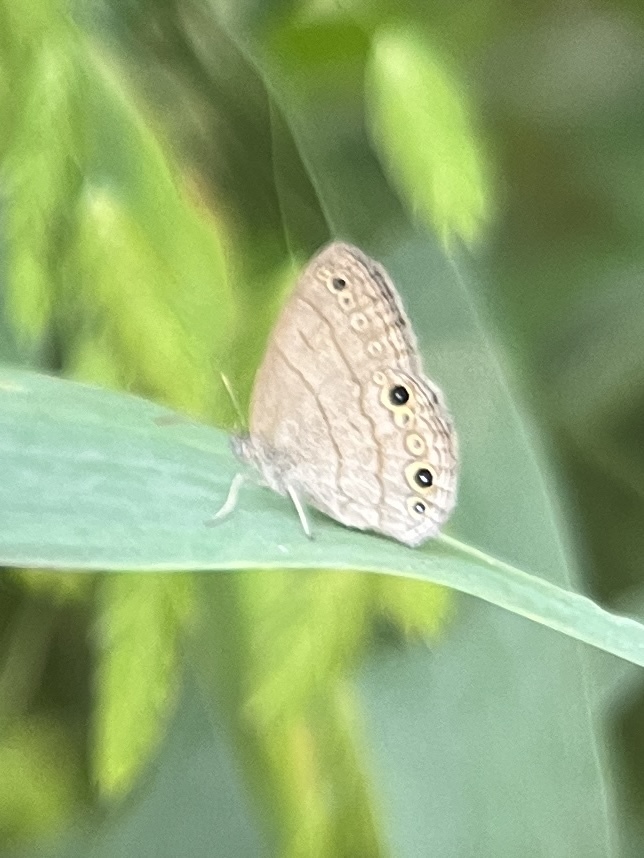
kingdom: Animalia
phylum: Arthropoda
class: Insecta
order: Lepidoptera
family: Nymphalidae
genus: Hermeuptychia
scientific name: Hermeuptychia hermes
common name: Hermes satyr
